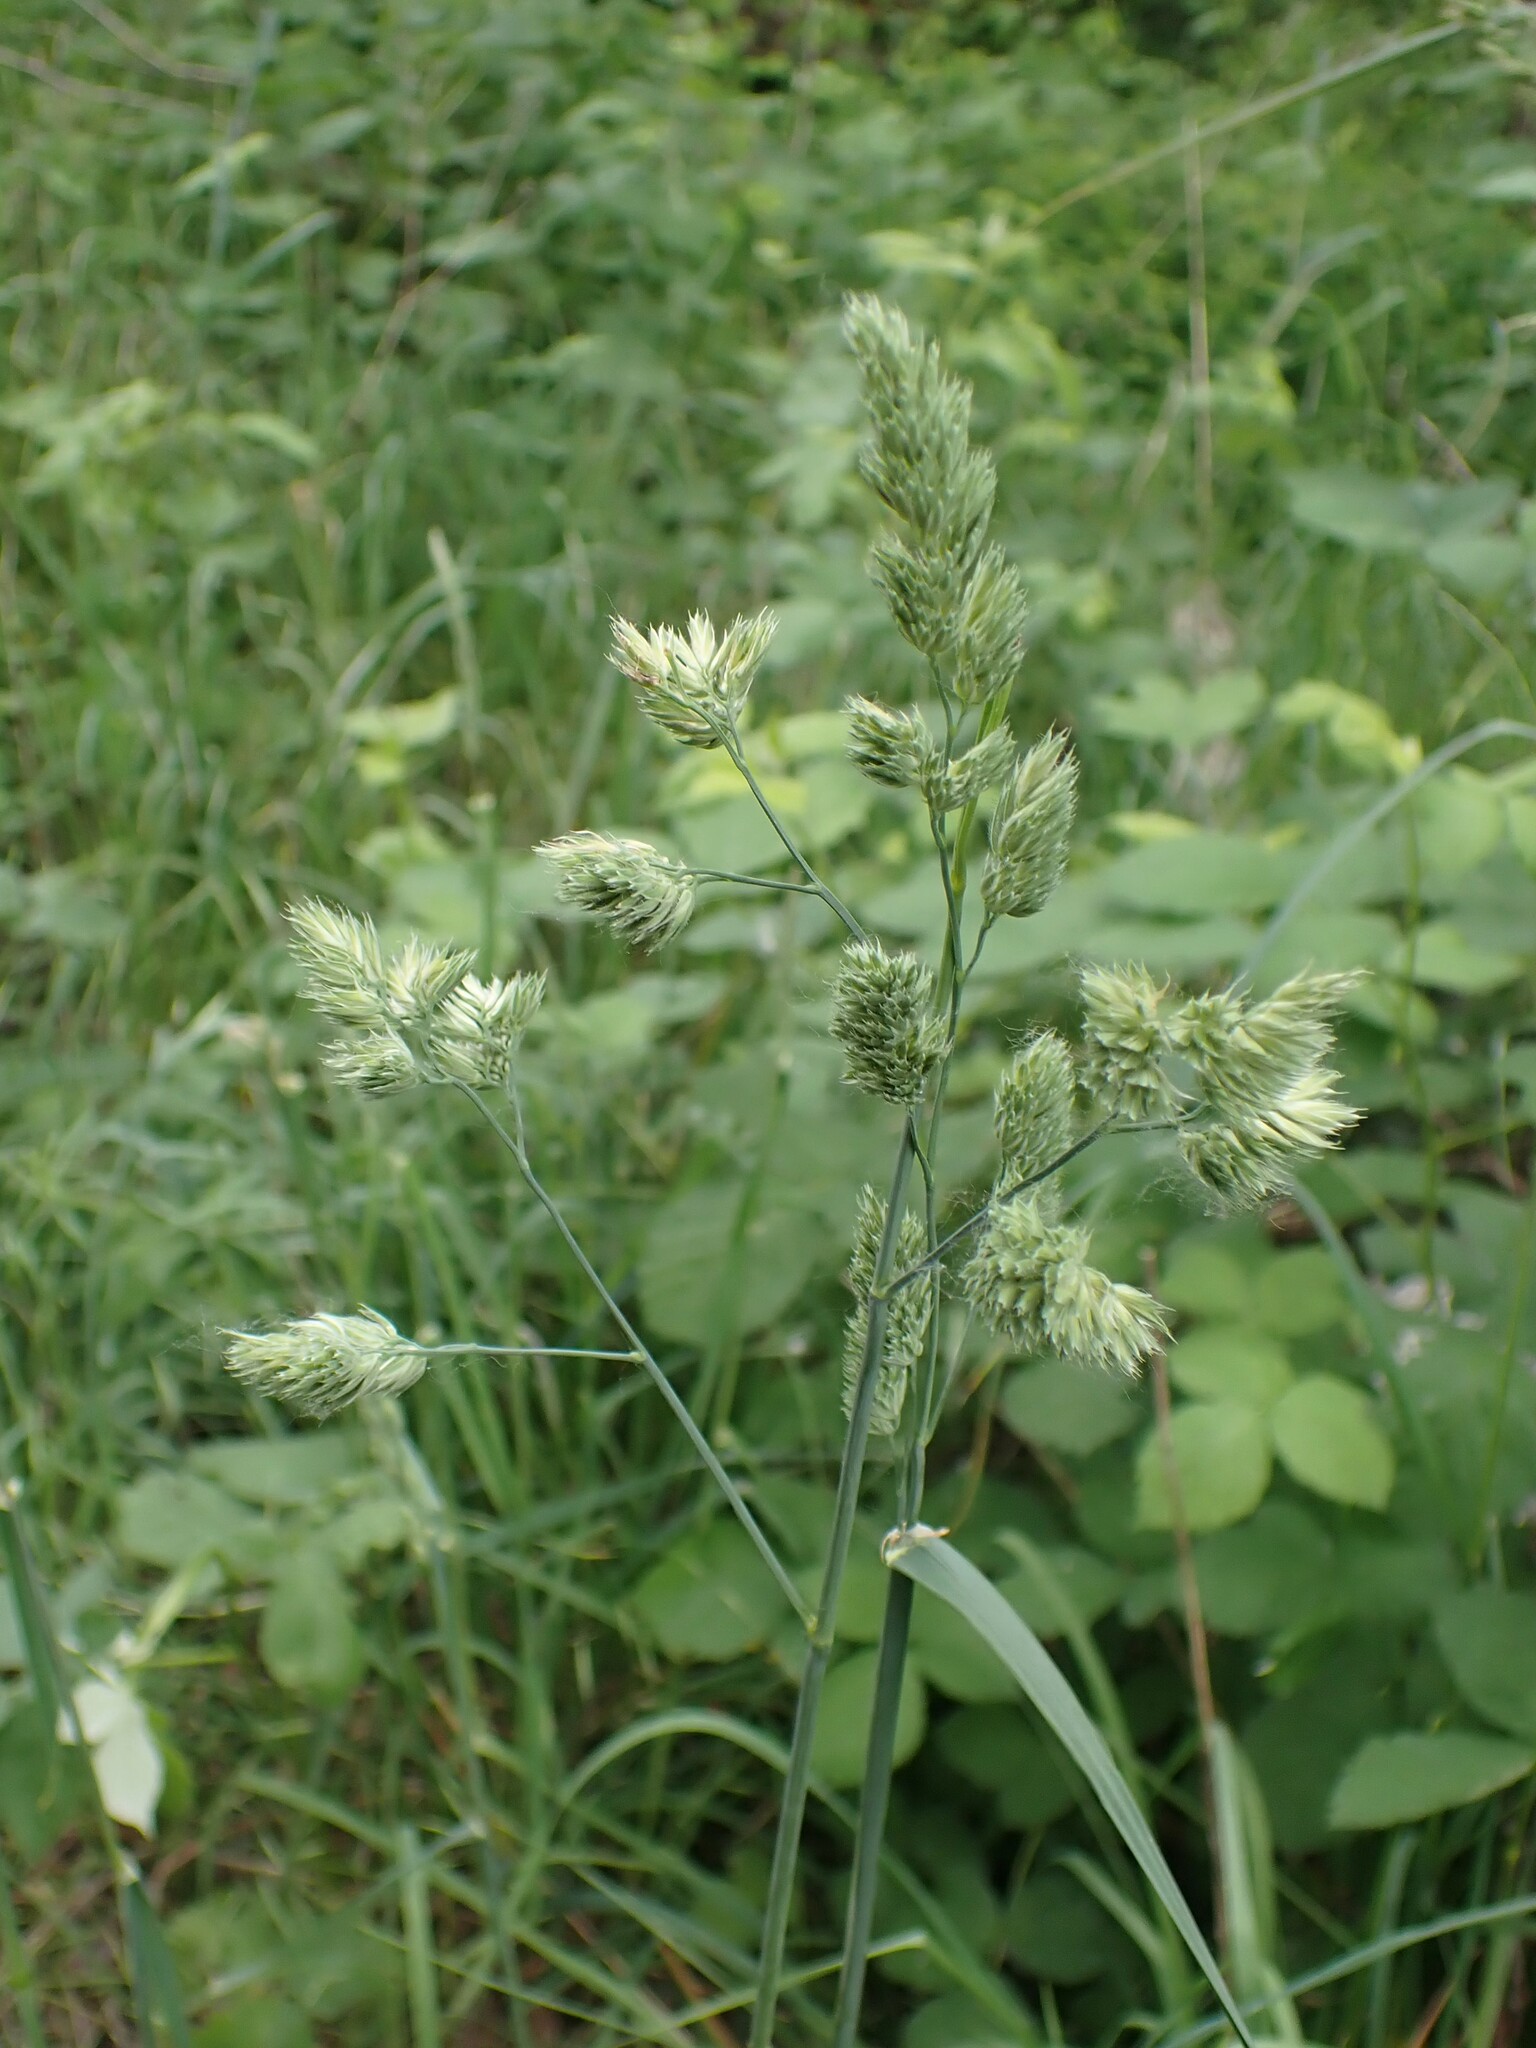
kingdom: Plantae
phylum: Tracheophyta
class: Liliopsida
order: Poales
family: Poaceae
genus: Dactylis
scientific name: Dactylis glomerata
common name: Orchardgrass
